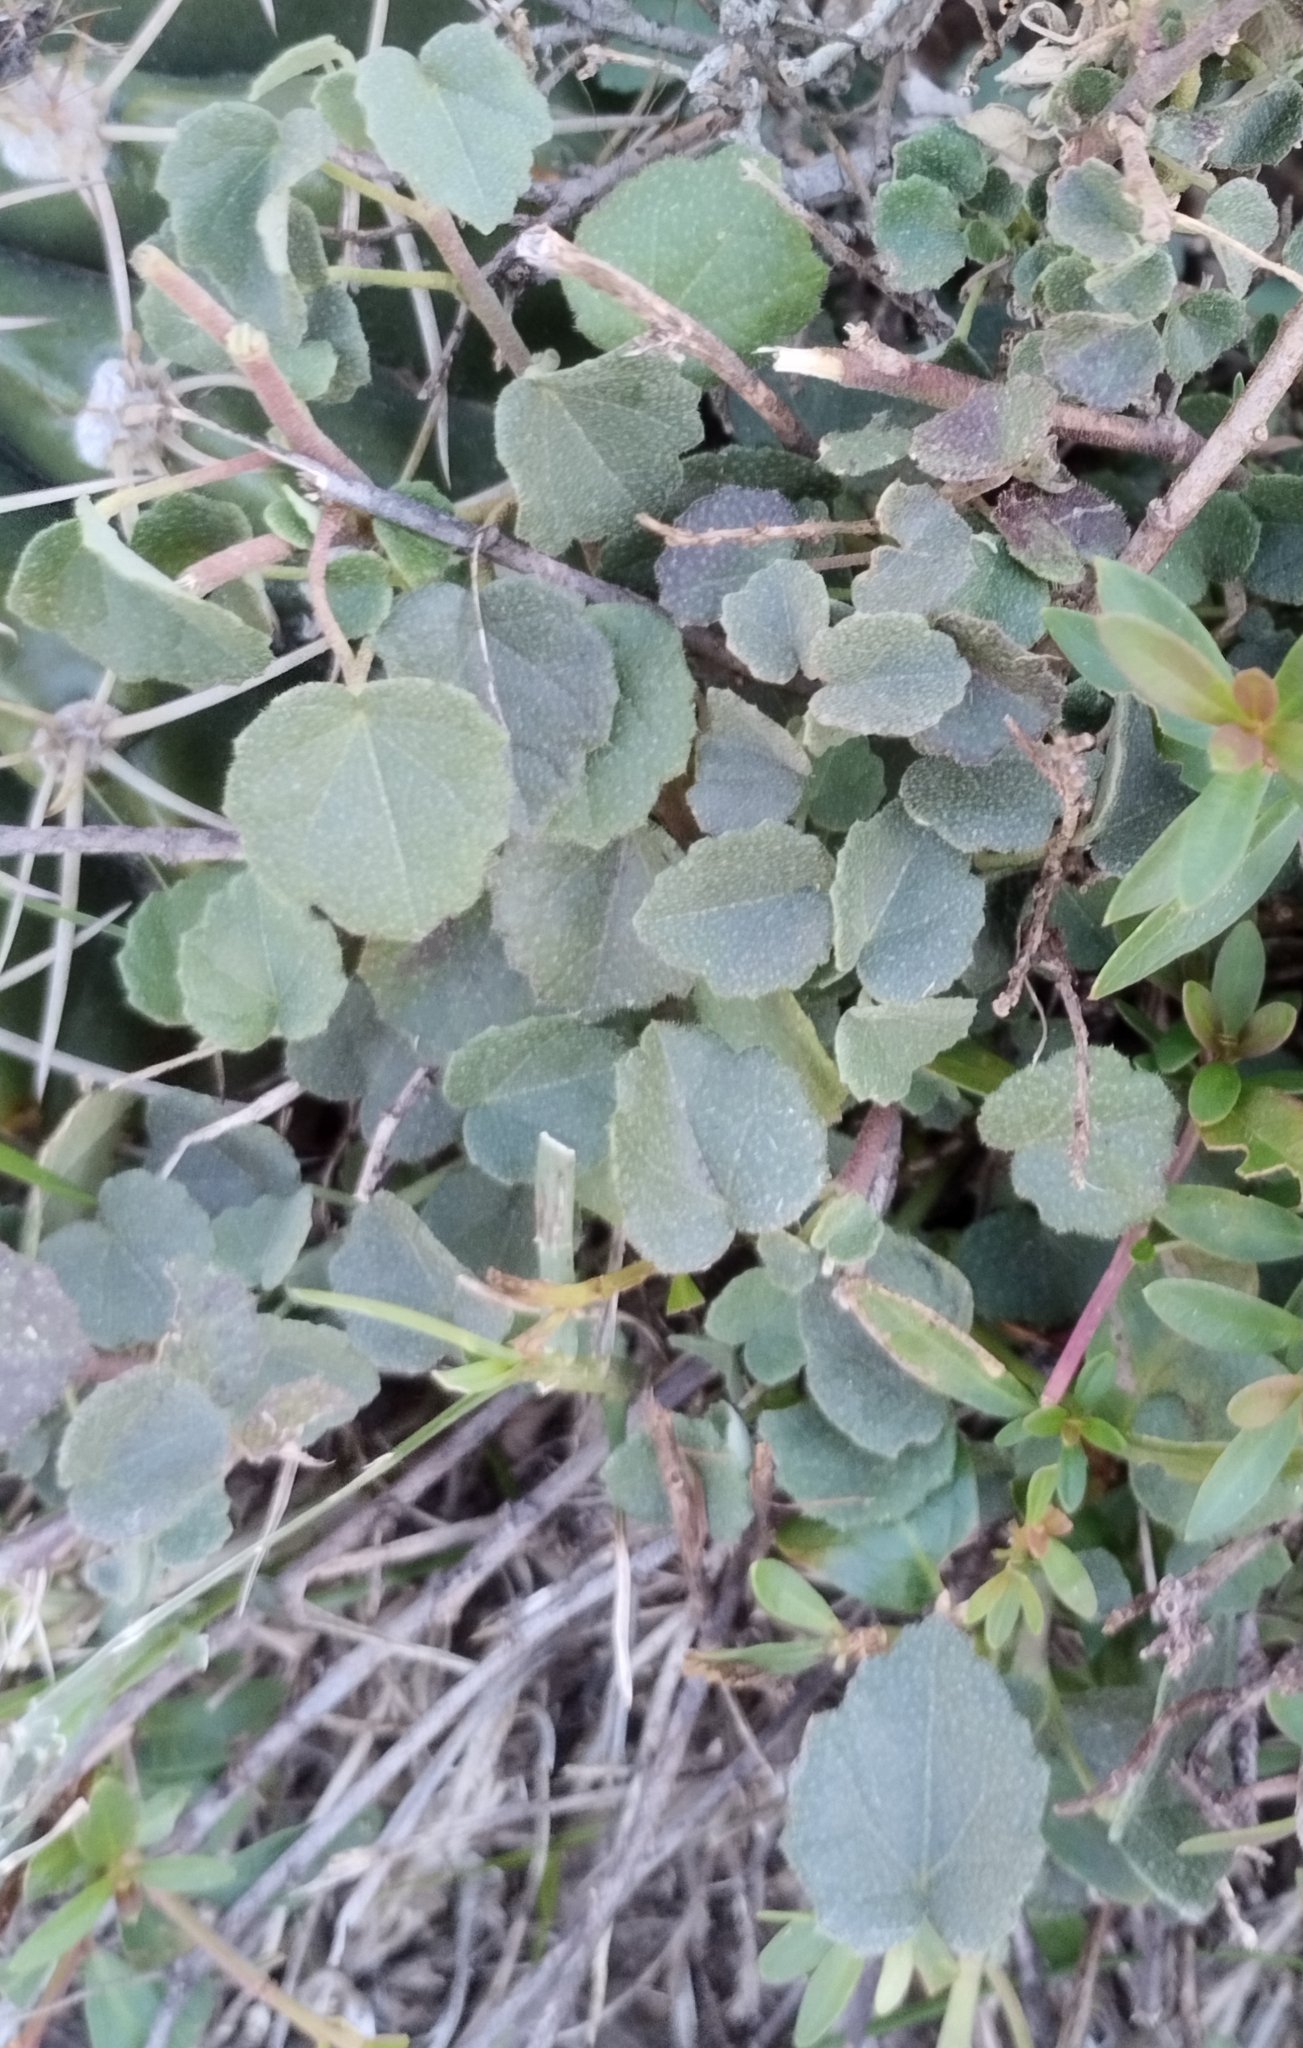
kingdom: Plantae
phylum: Tracheophyta
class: Magnoliopsida
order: Malvales
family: Malvaceae
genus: Pavonia
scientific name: Pavonia cymbalaria
